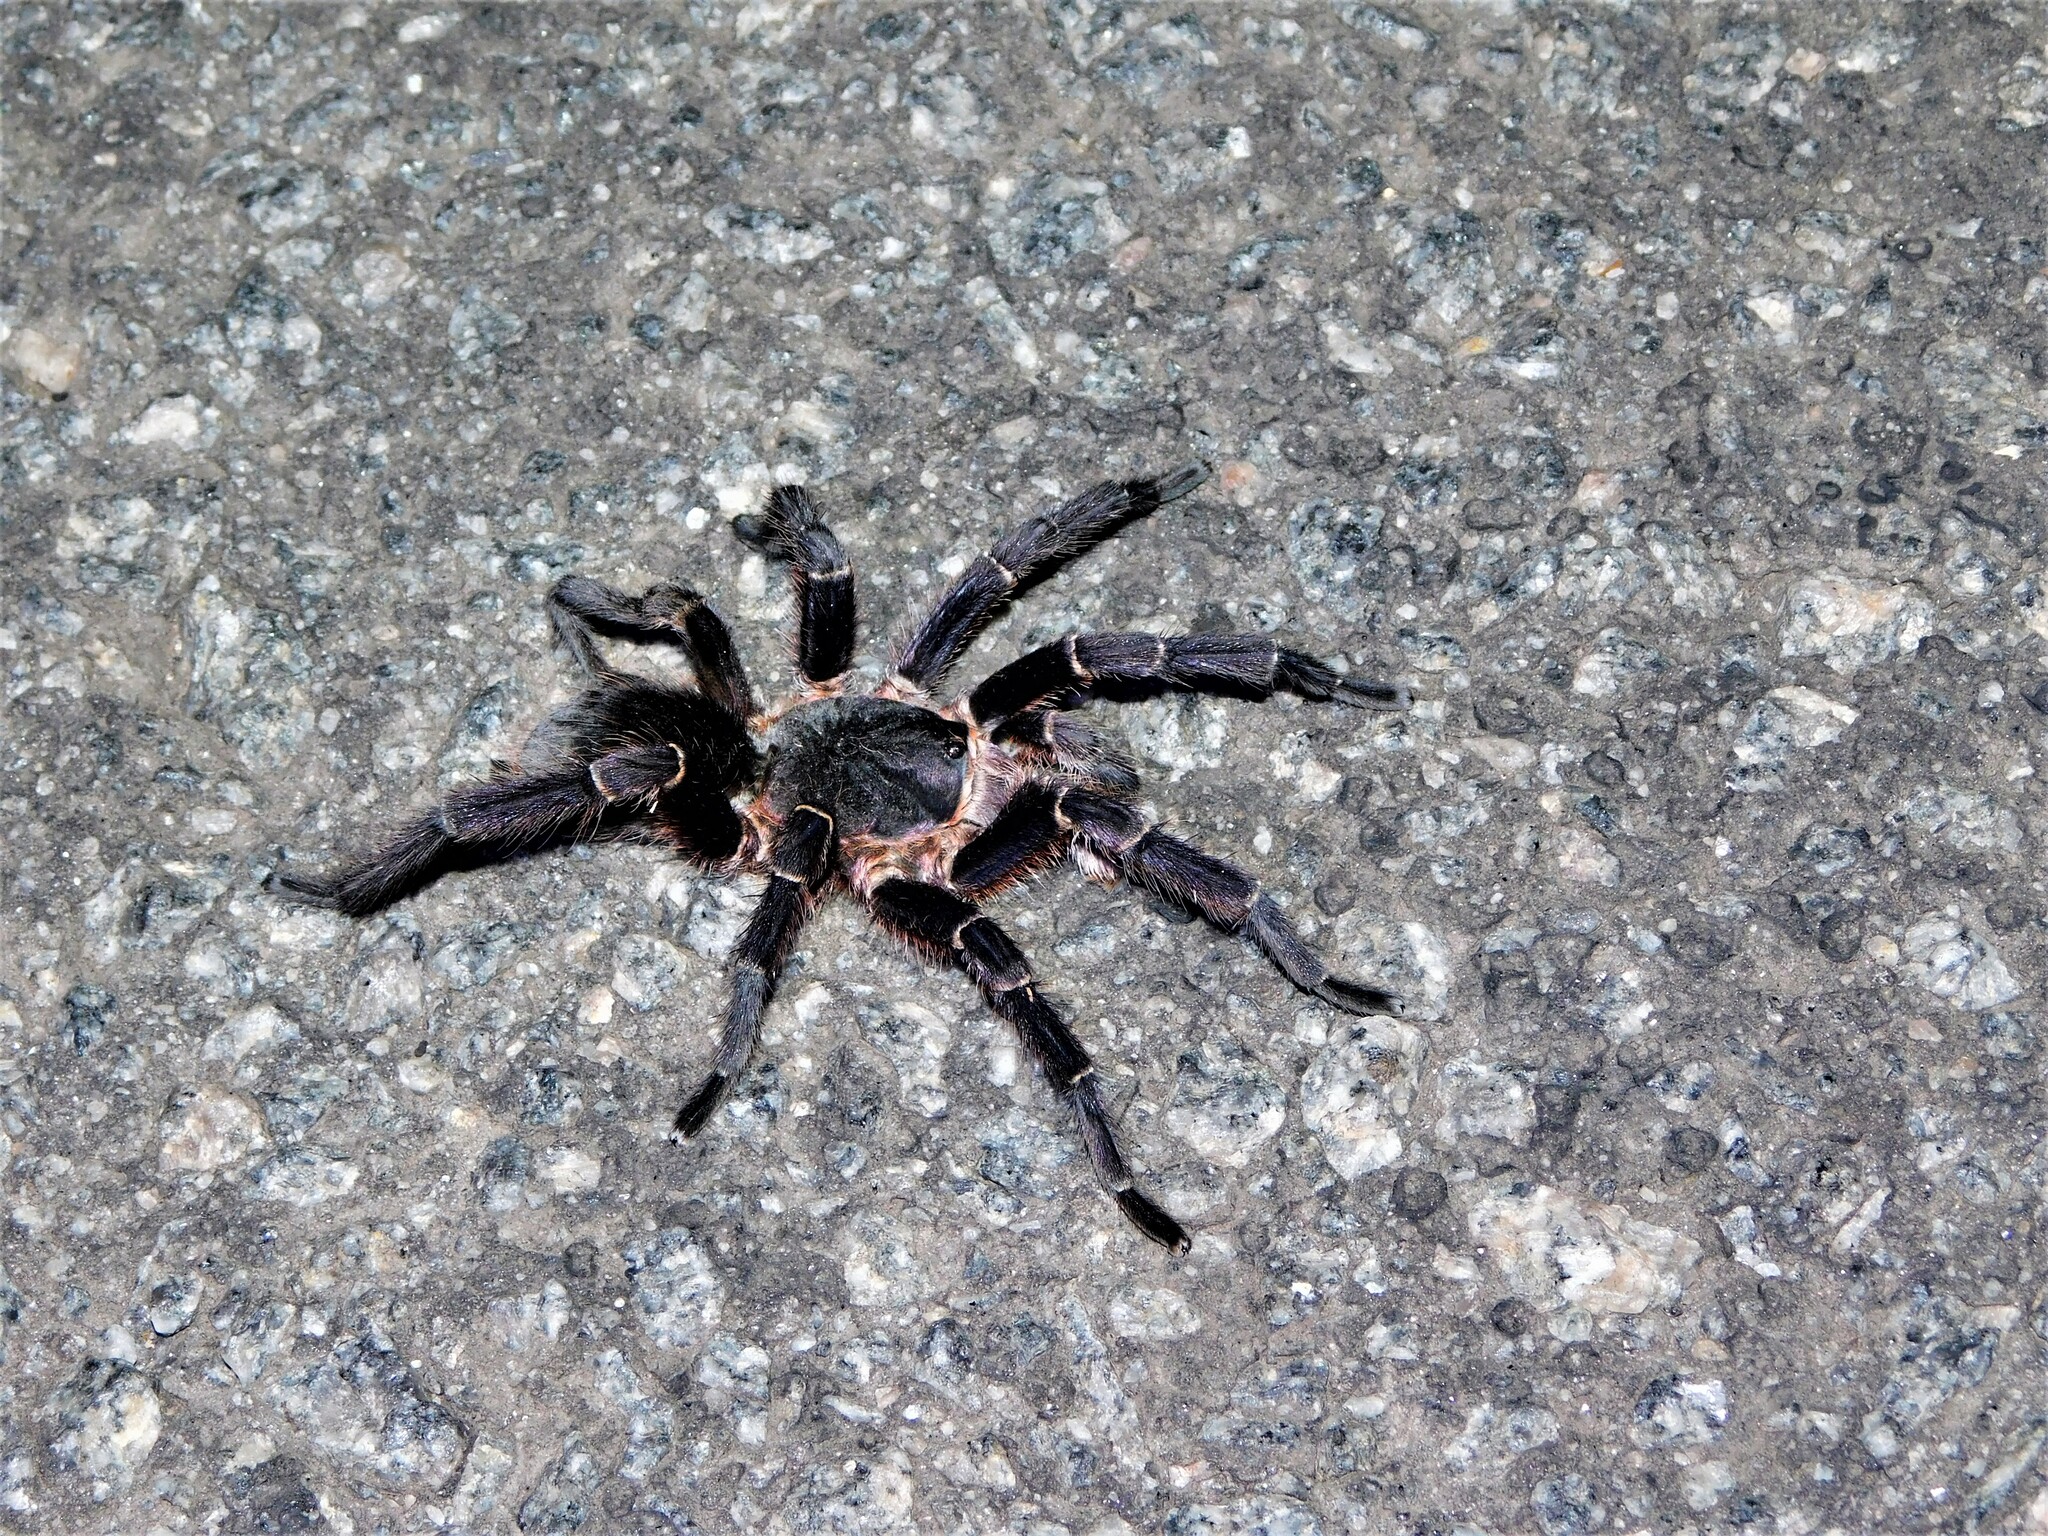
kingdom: Animalia
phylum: Arthropoda
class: Arachnida
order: Araneae
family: Theraphosidae
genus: Eupalaestrus
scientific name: Eupalaestrus weijenberghi
